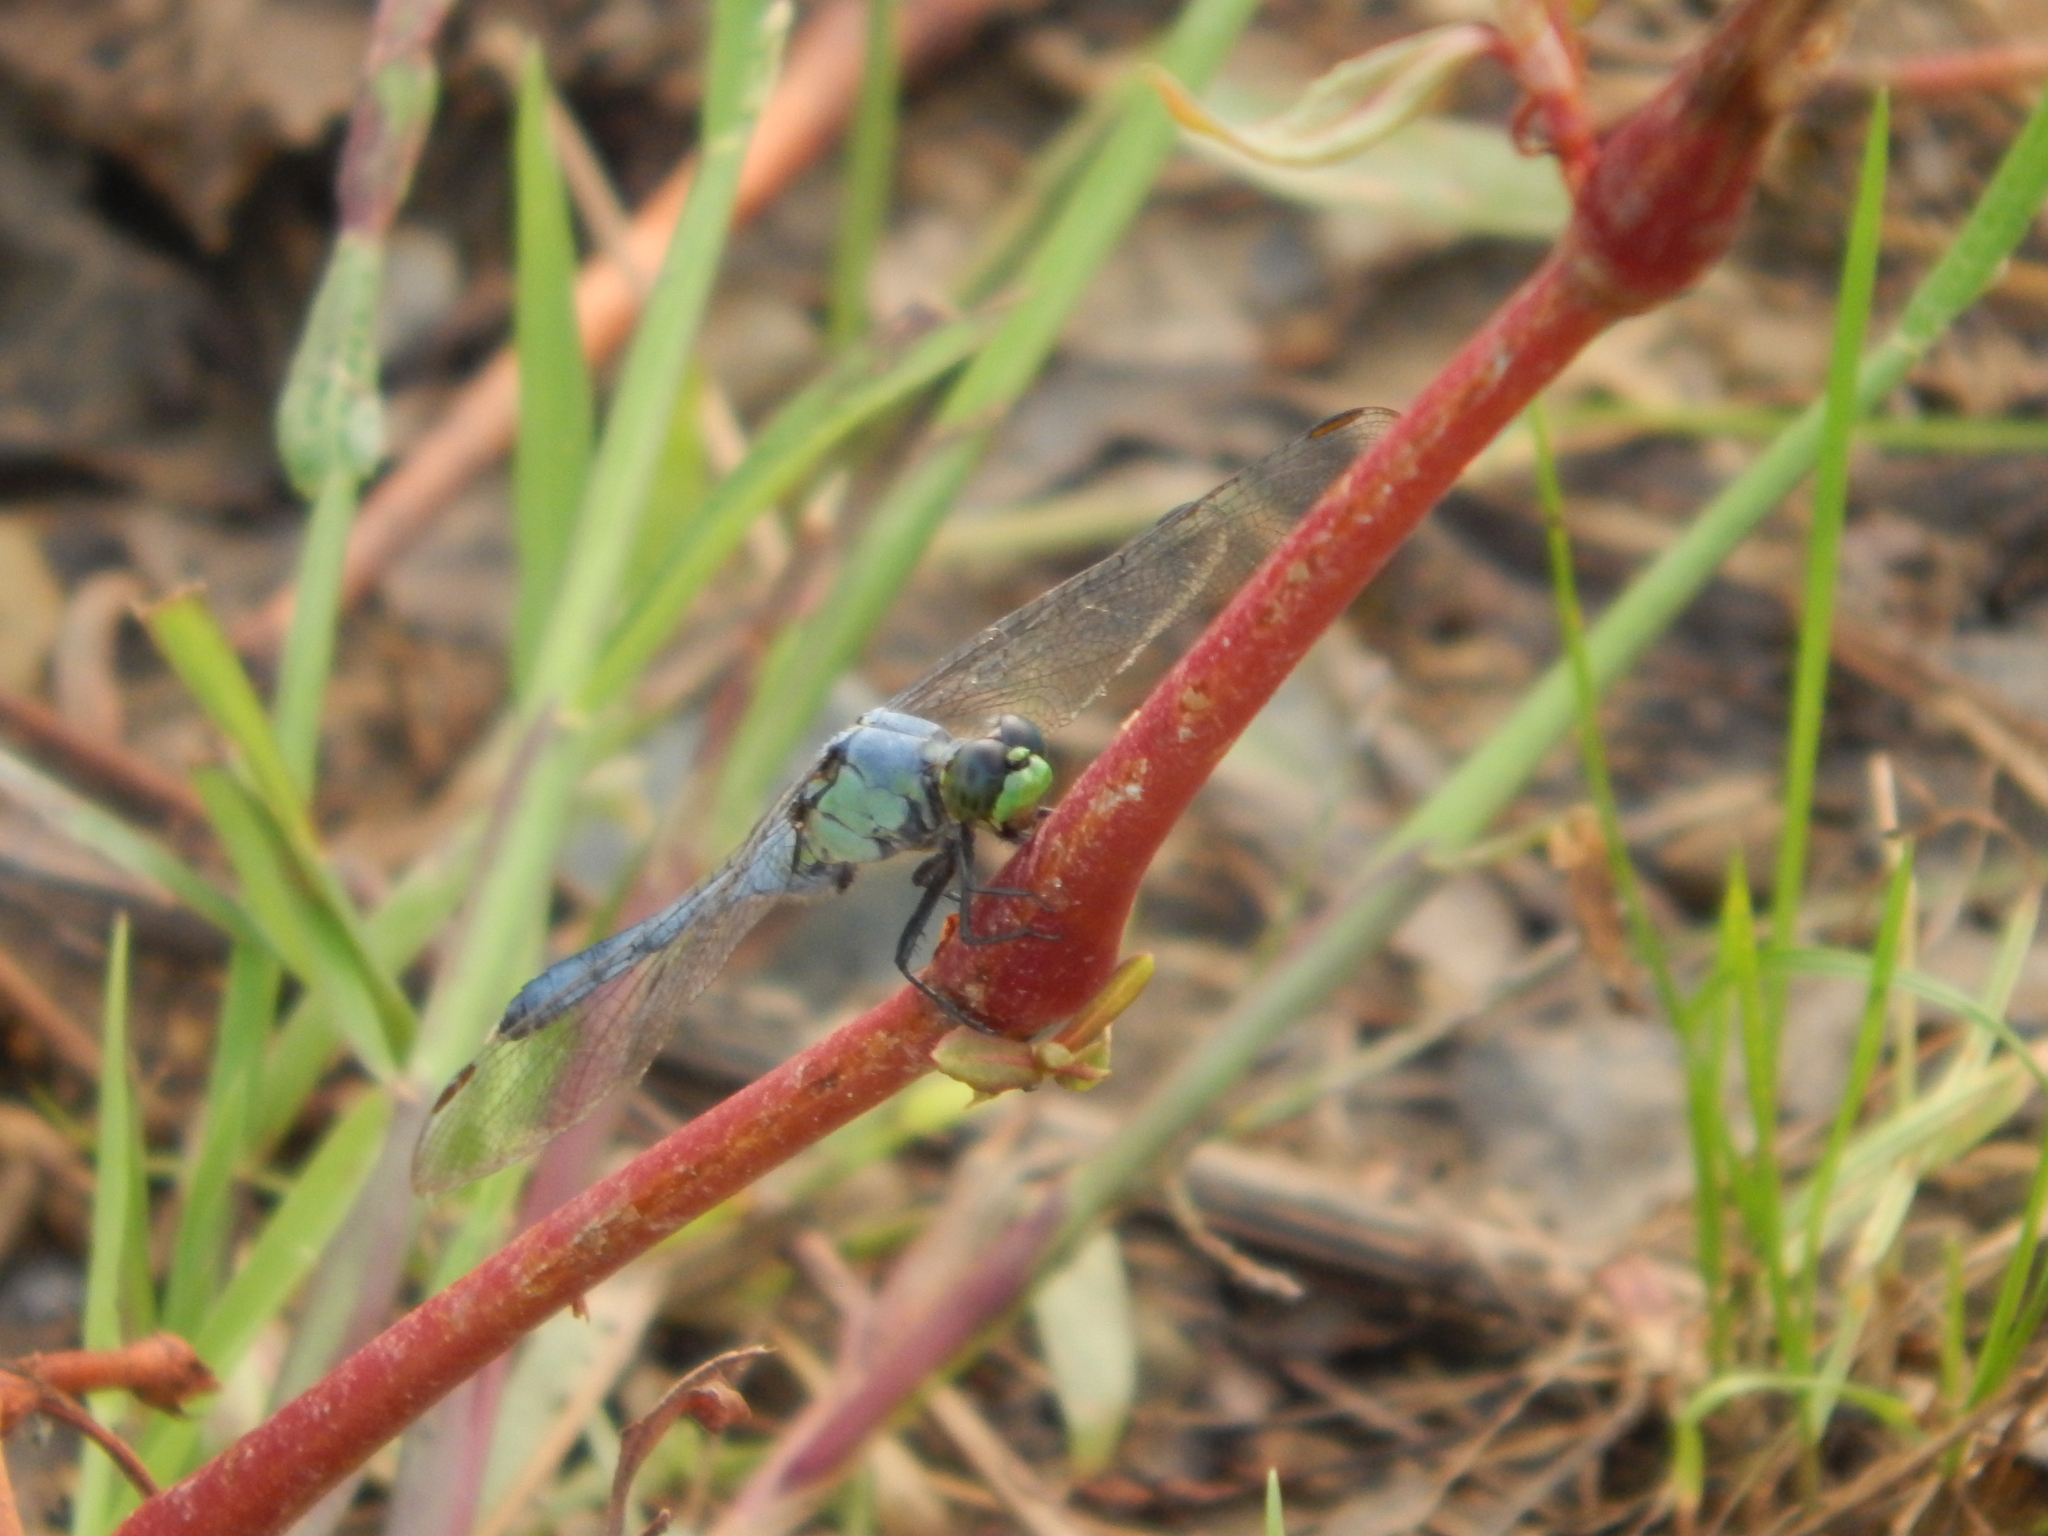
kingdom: Animalia
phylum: Arthropoda
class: Insecta
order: Odonata
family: Libellulidae
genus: Erythemis
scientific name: Erythemis simplicicollis
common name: Eastern pondhawk
